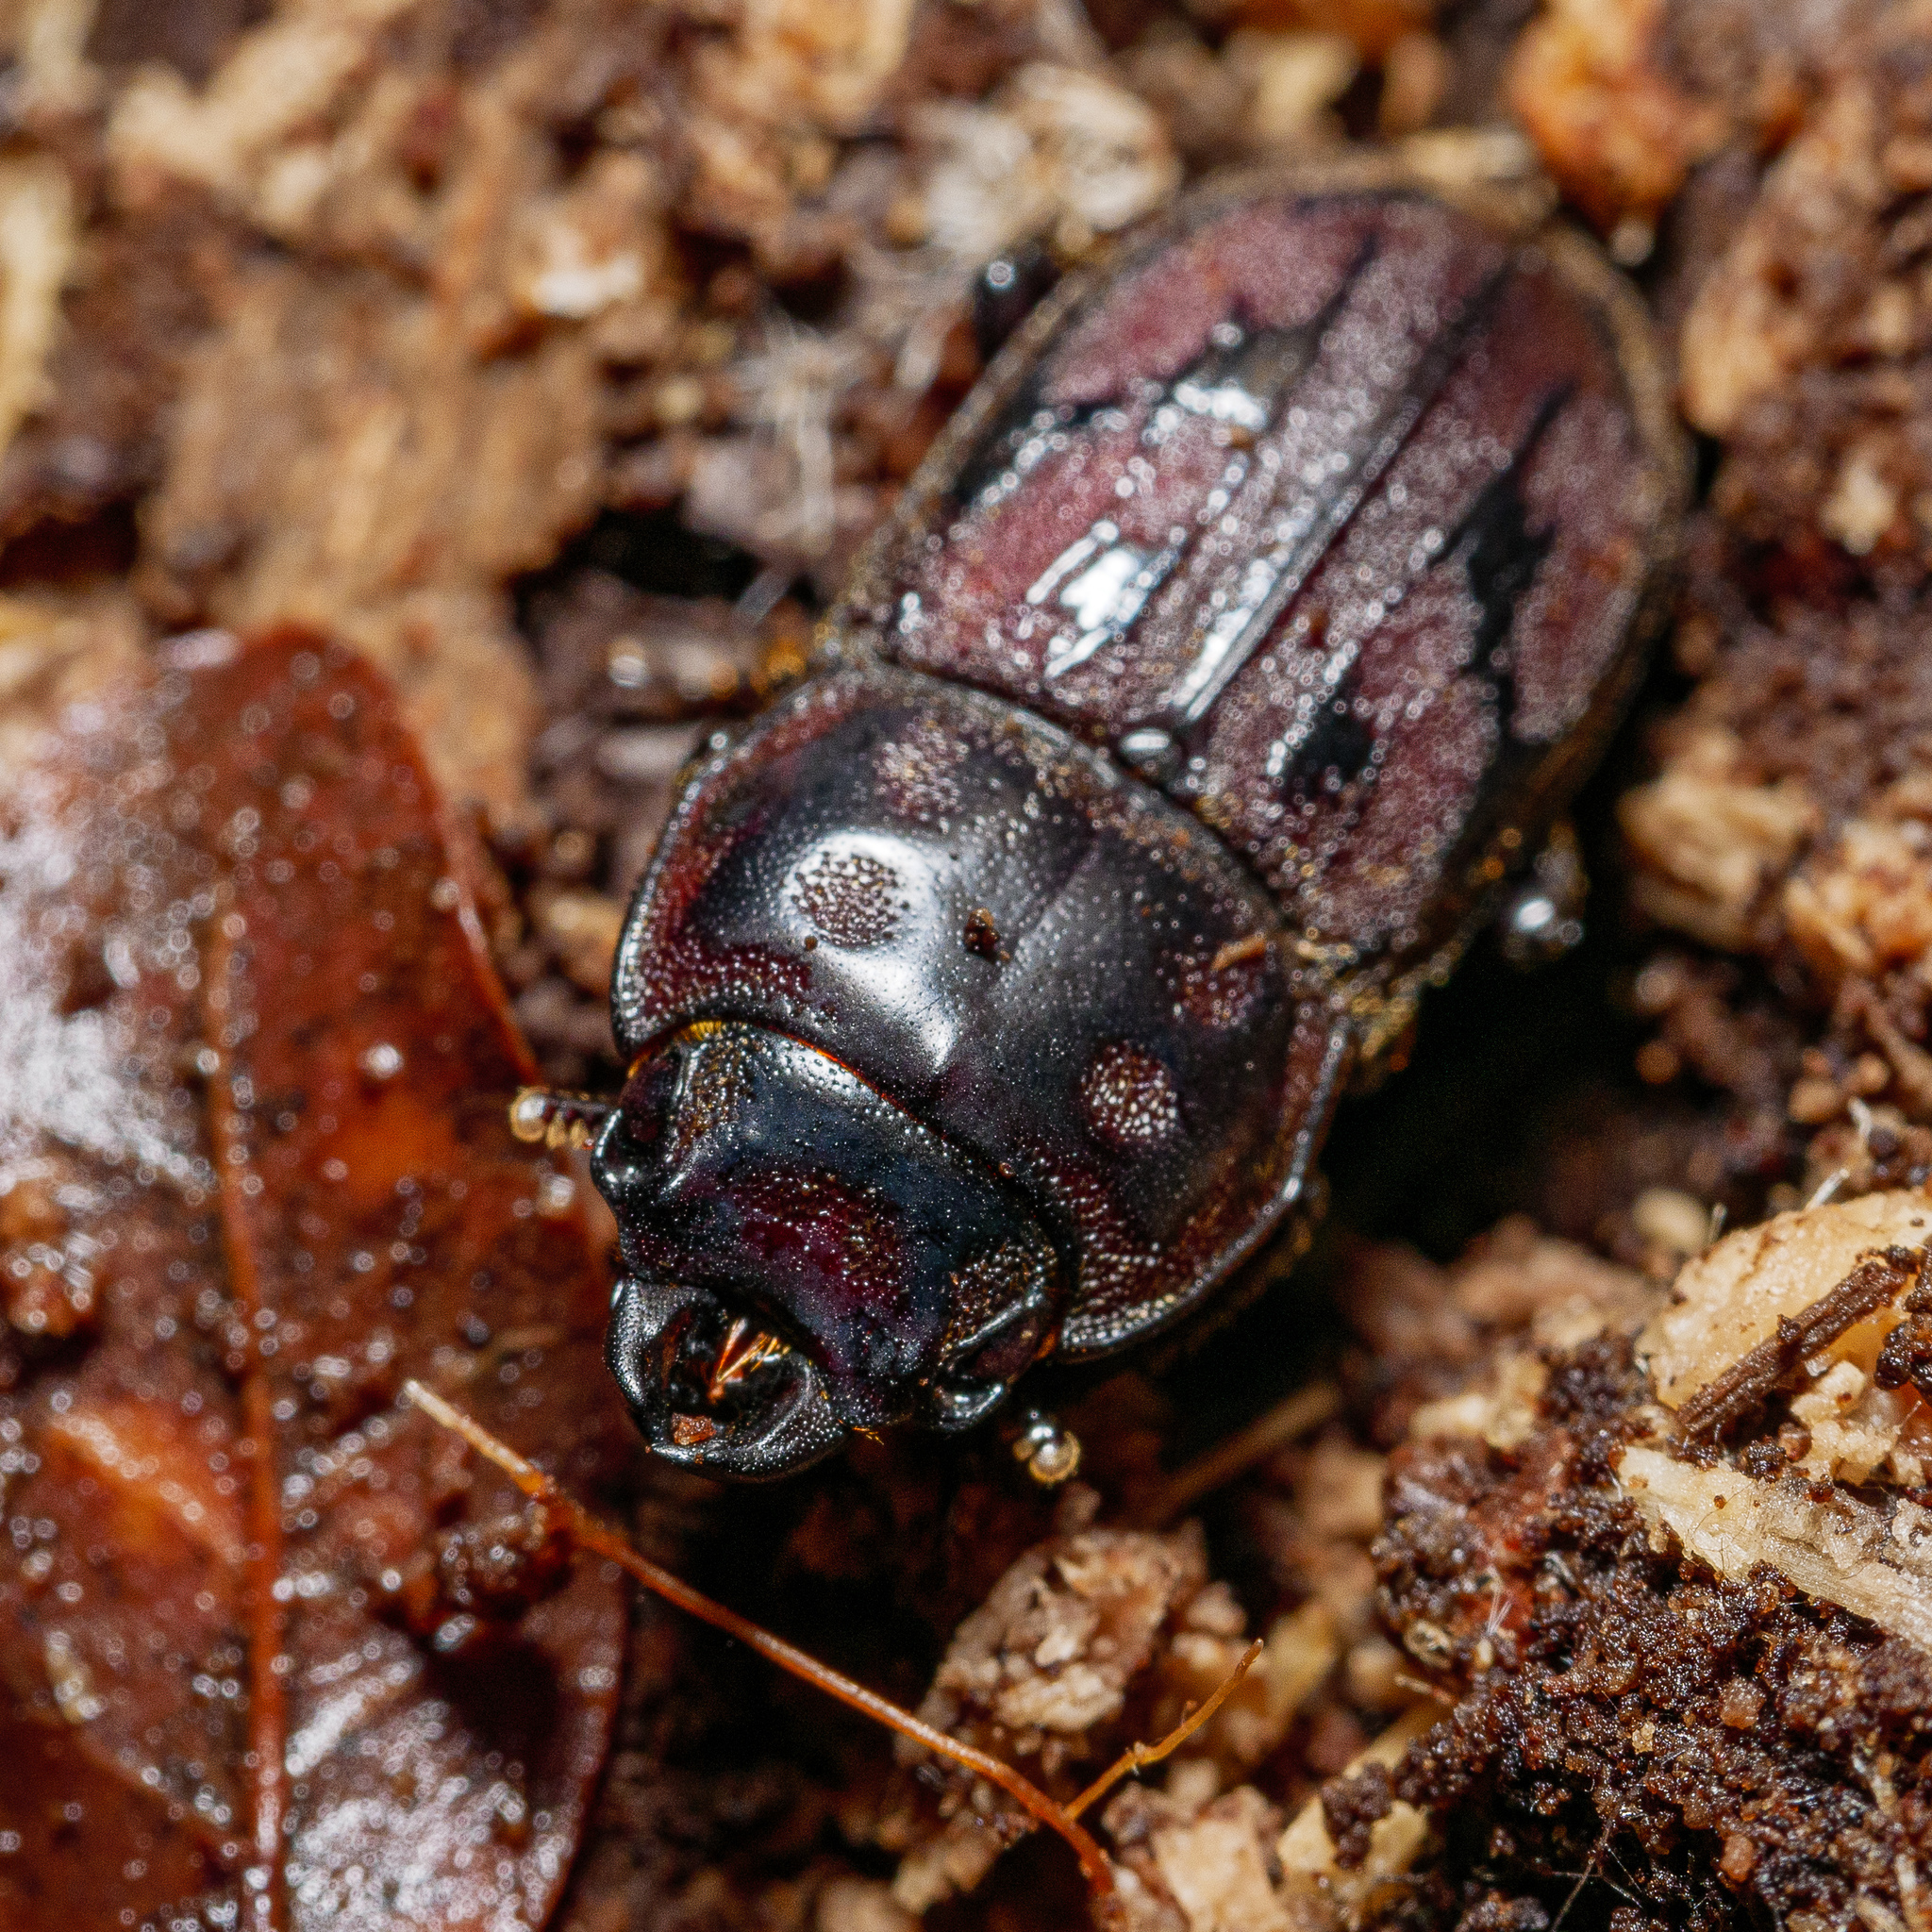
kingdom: Animalia
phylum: Arthropoda
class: Insecta
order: Coleoptera
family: Lucanidae
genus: Paralissotes
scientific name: Paralissotes reticulatus
